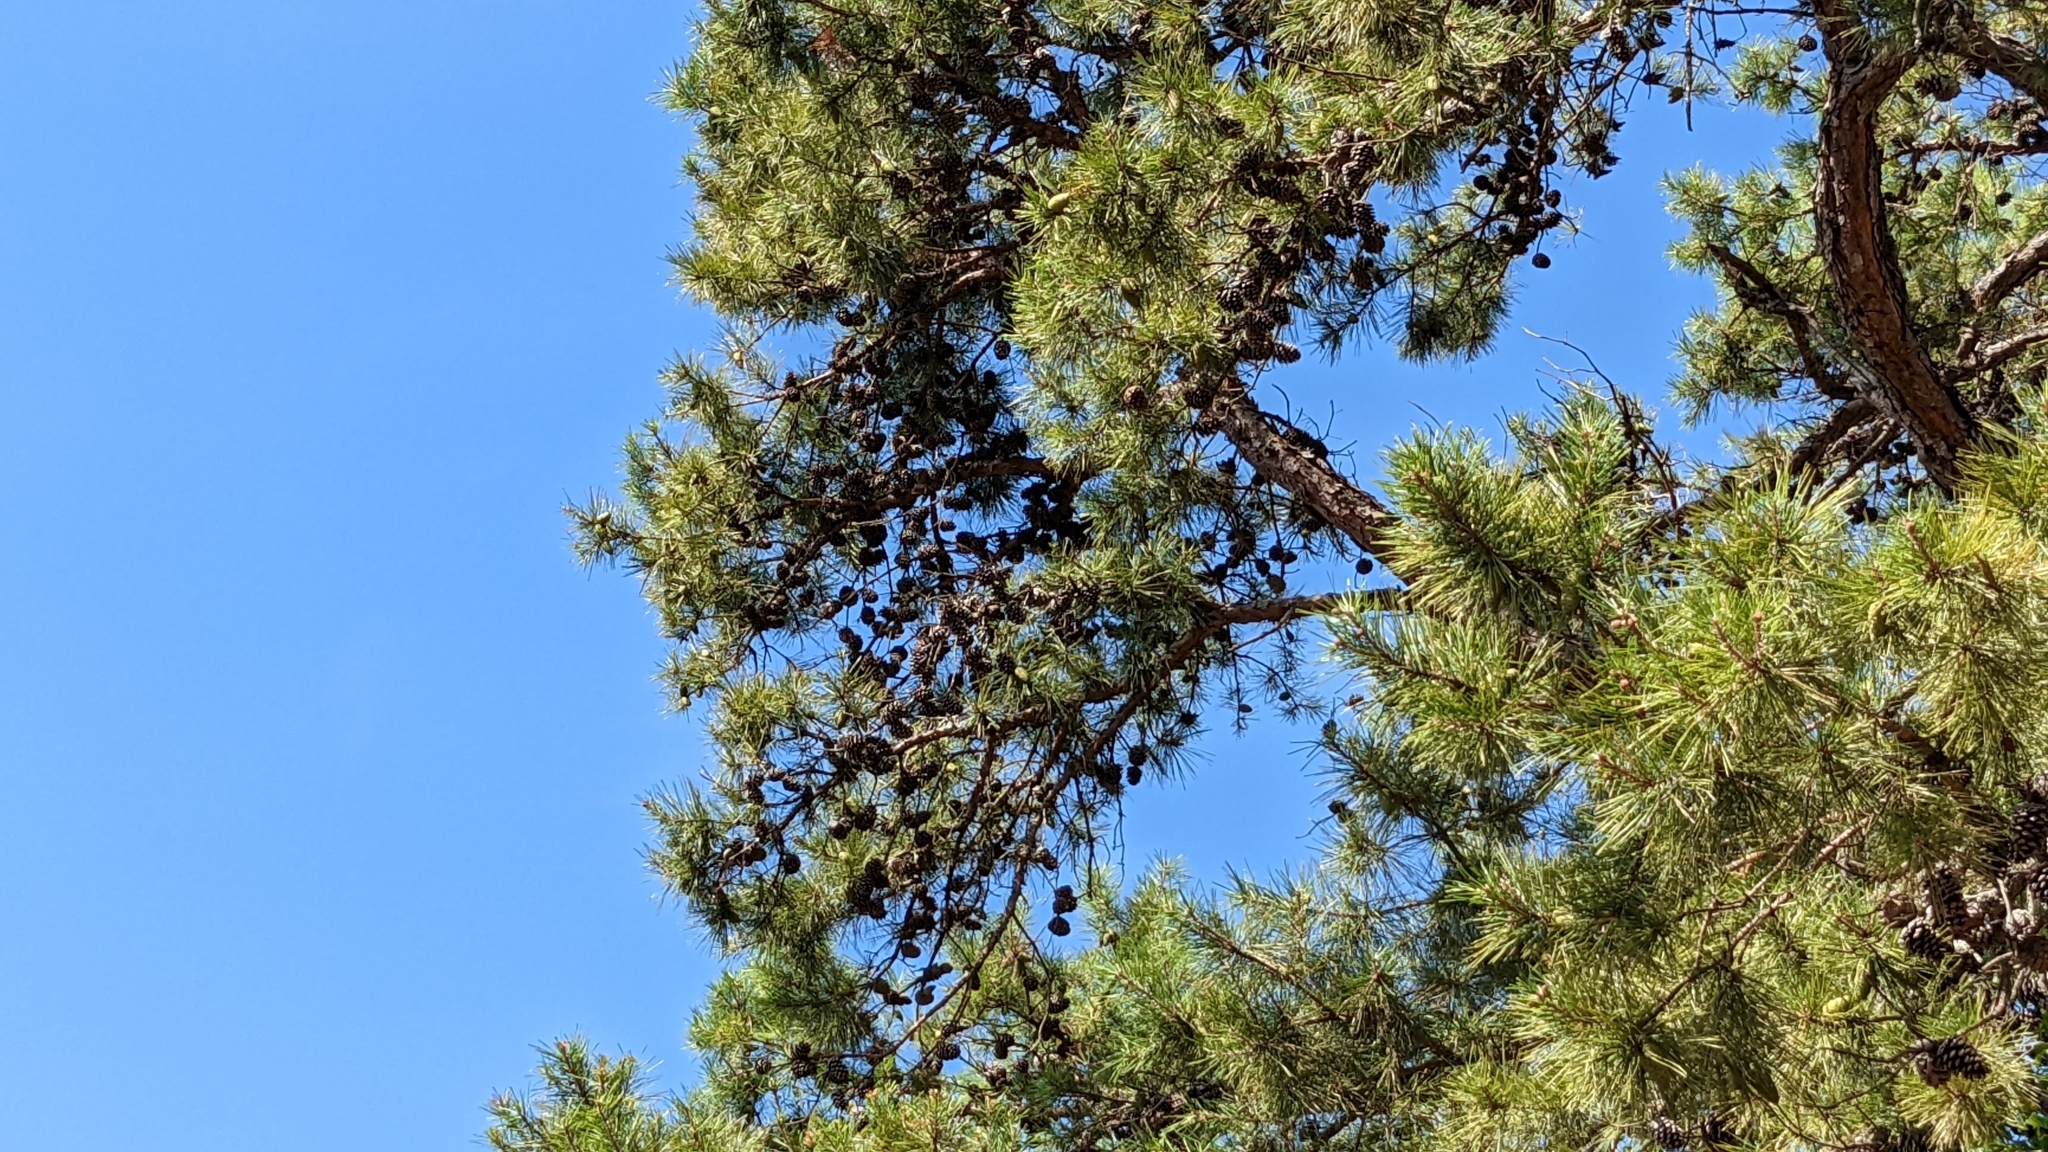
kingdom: Plantae
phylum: Tracheophyta
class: Pinopsida
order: Pinales
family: Pinaceae
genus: Pinus
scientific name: Pinus echinata
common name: Shortleaf pine
